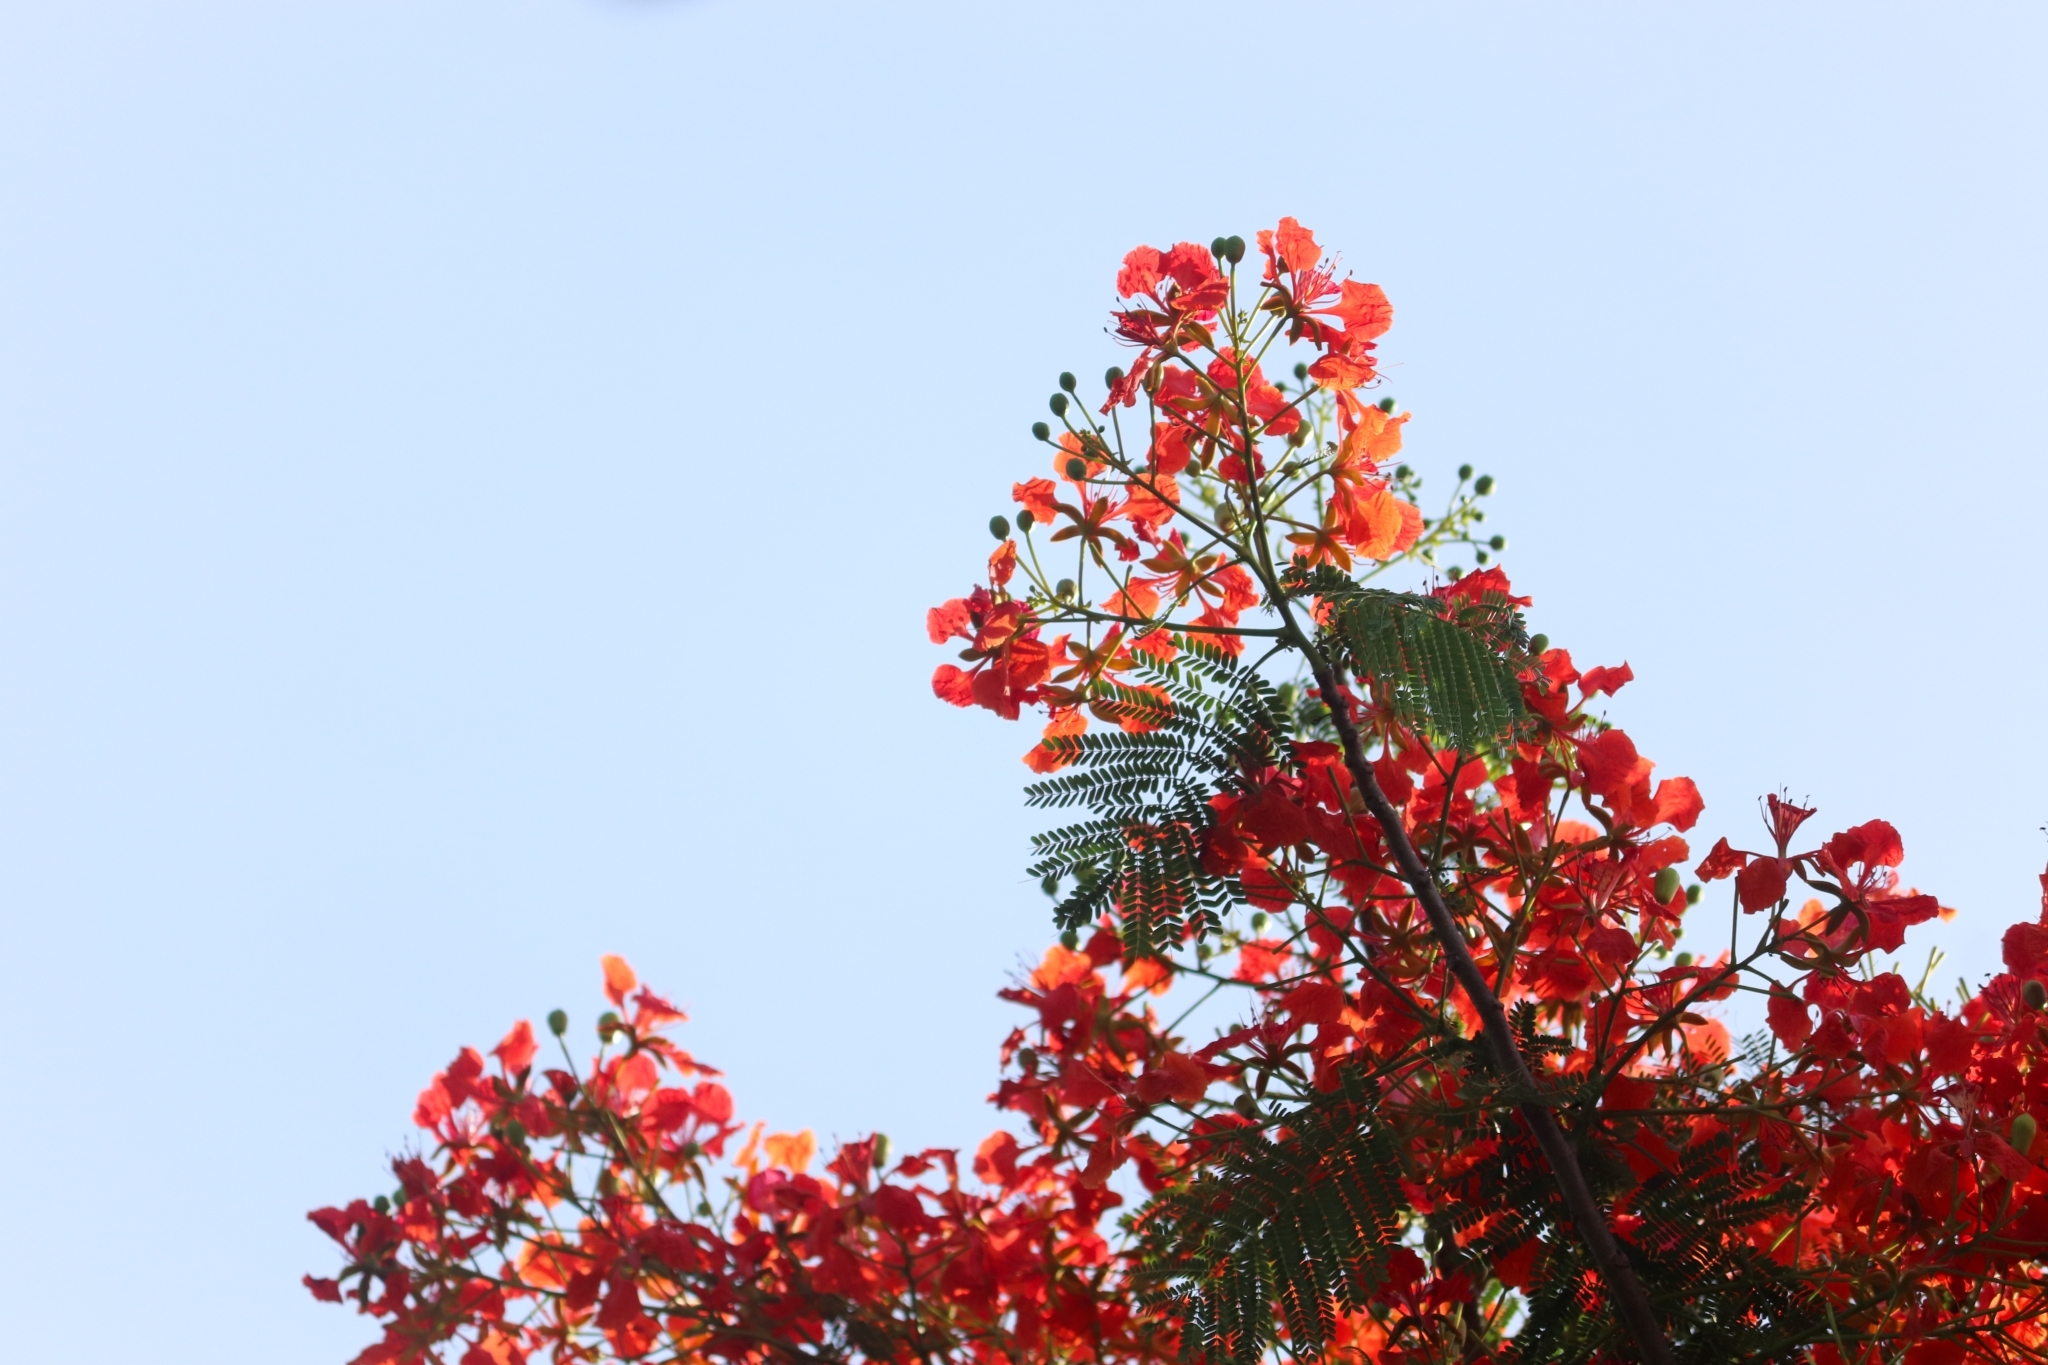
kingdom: Plantae
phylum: Tracheophyta
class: Magnoliopsida
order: Fabales
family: Fabaceae
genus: Delonix
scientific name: Delonix regia
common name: Royal poinciana
